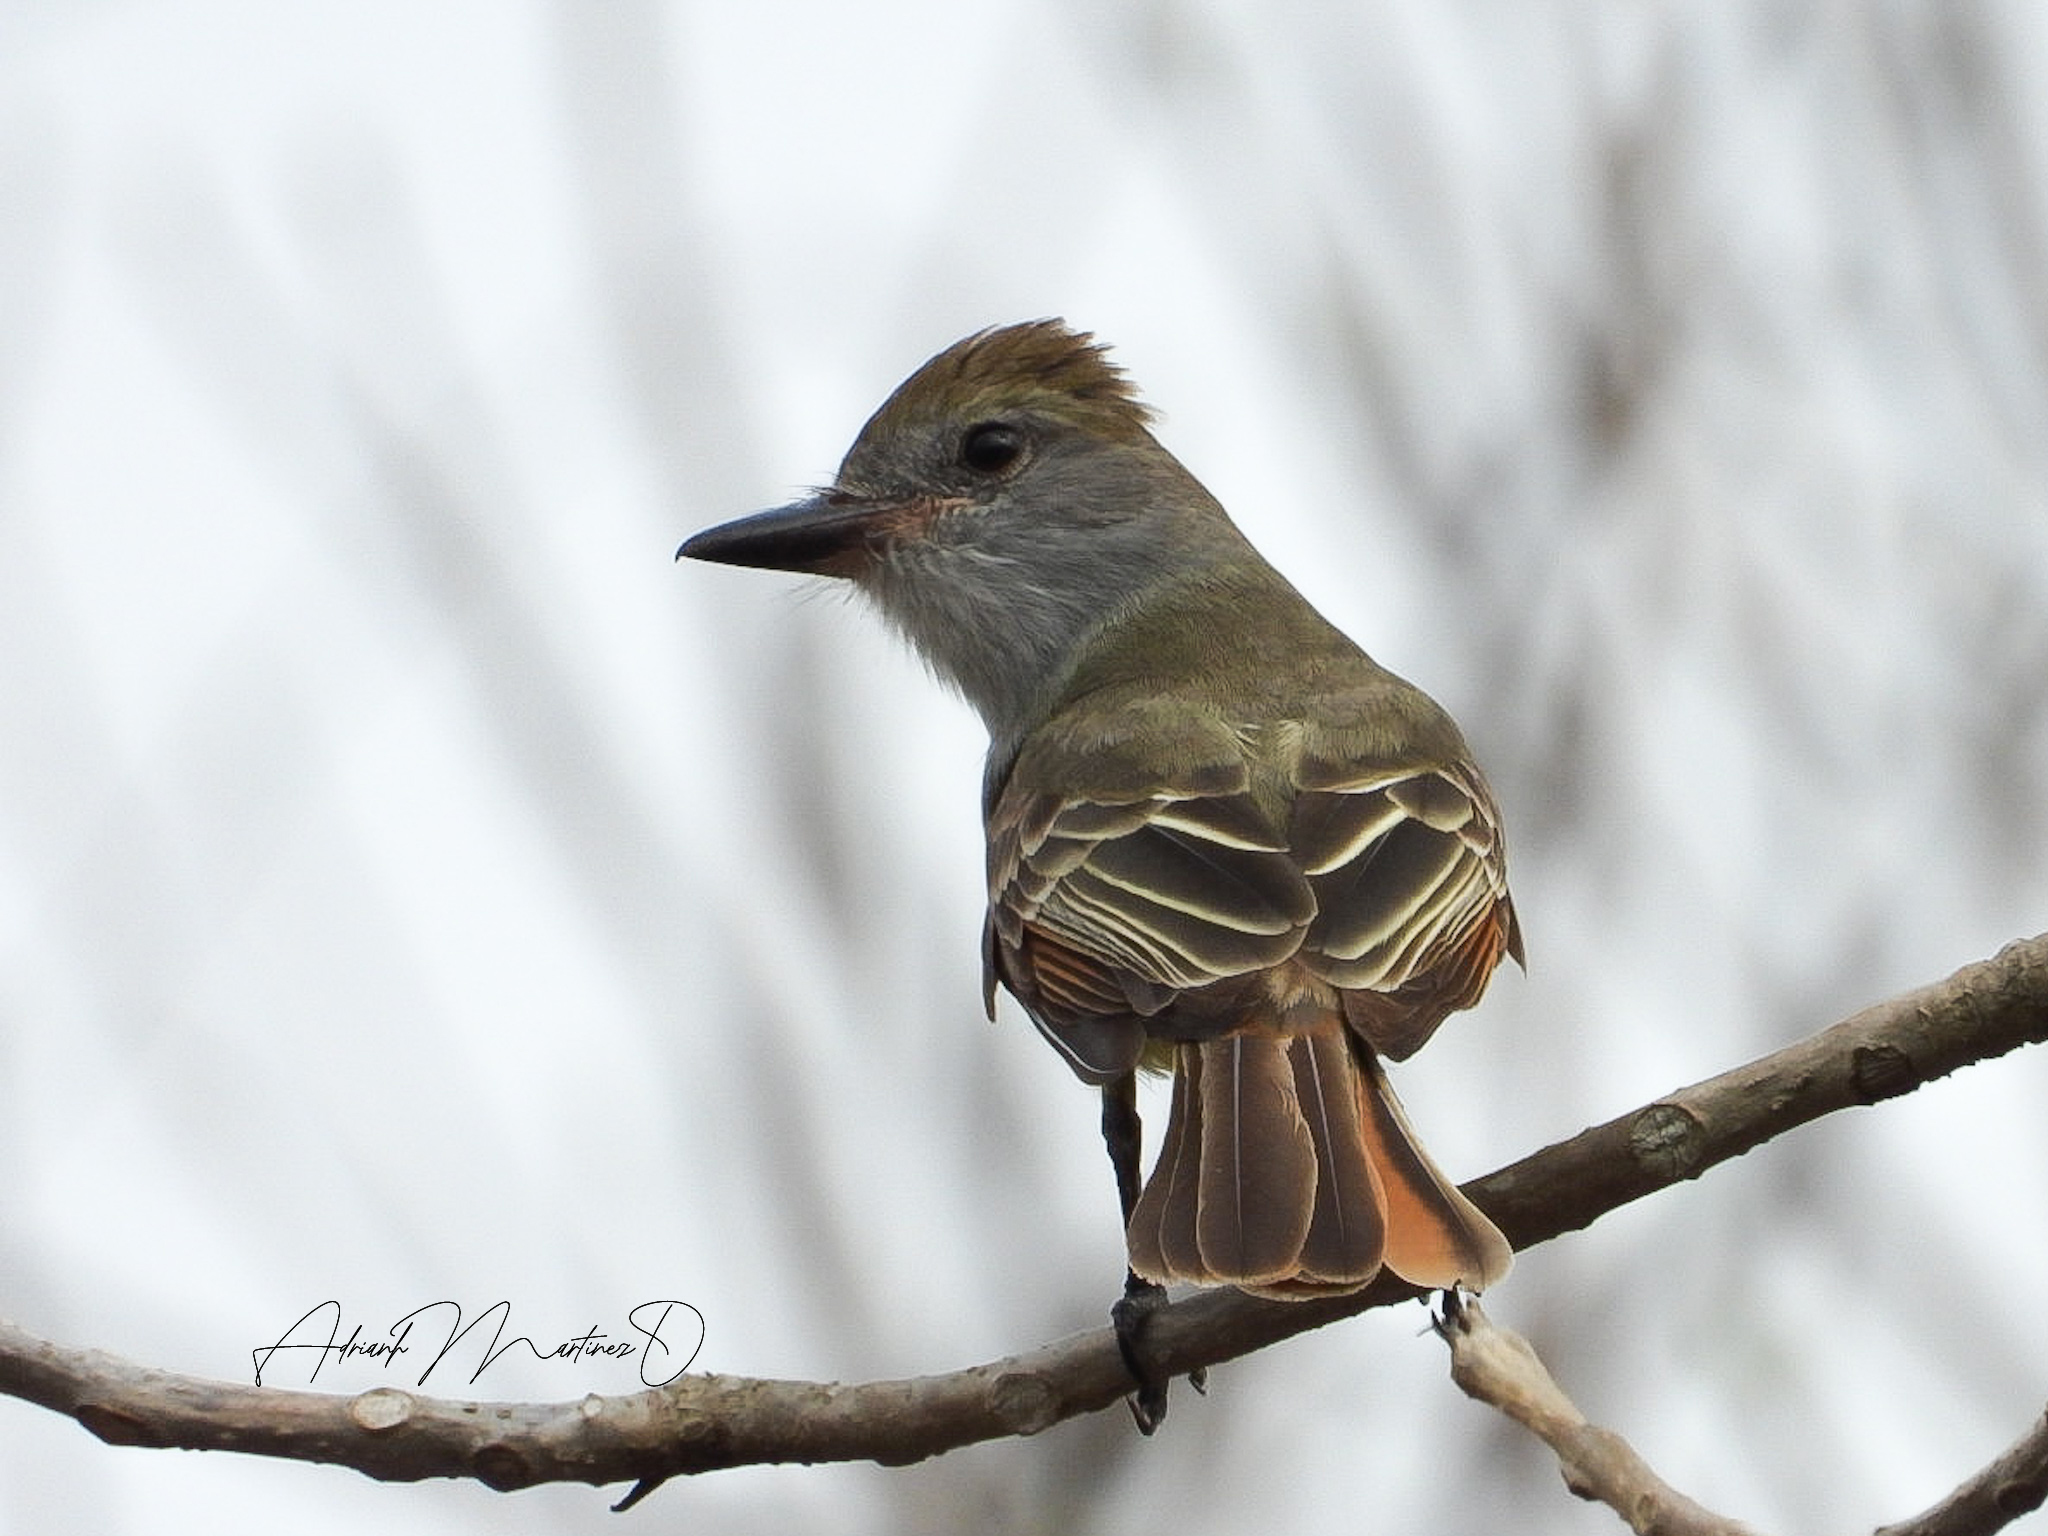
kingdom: Animalia
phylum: Chordata
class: Aves
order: Passeriformes
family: Tyrannidae
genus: Myiarchus
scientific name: Myiarchus tyrannulus
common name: Brown-crested flycatcher
